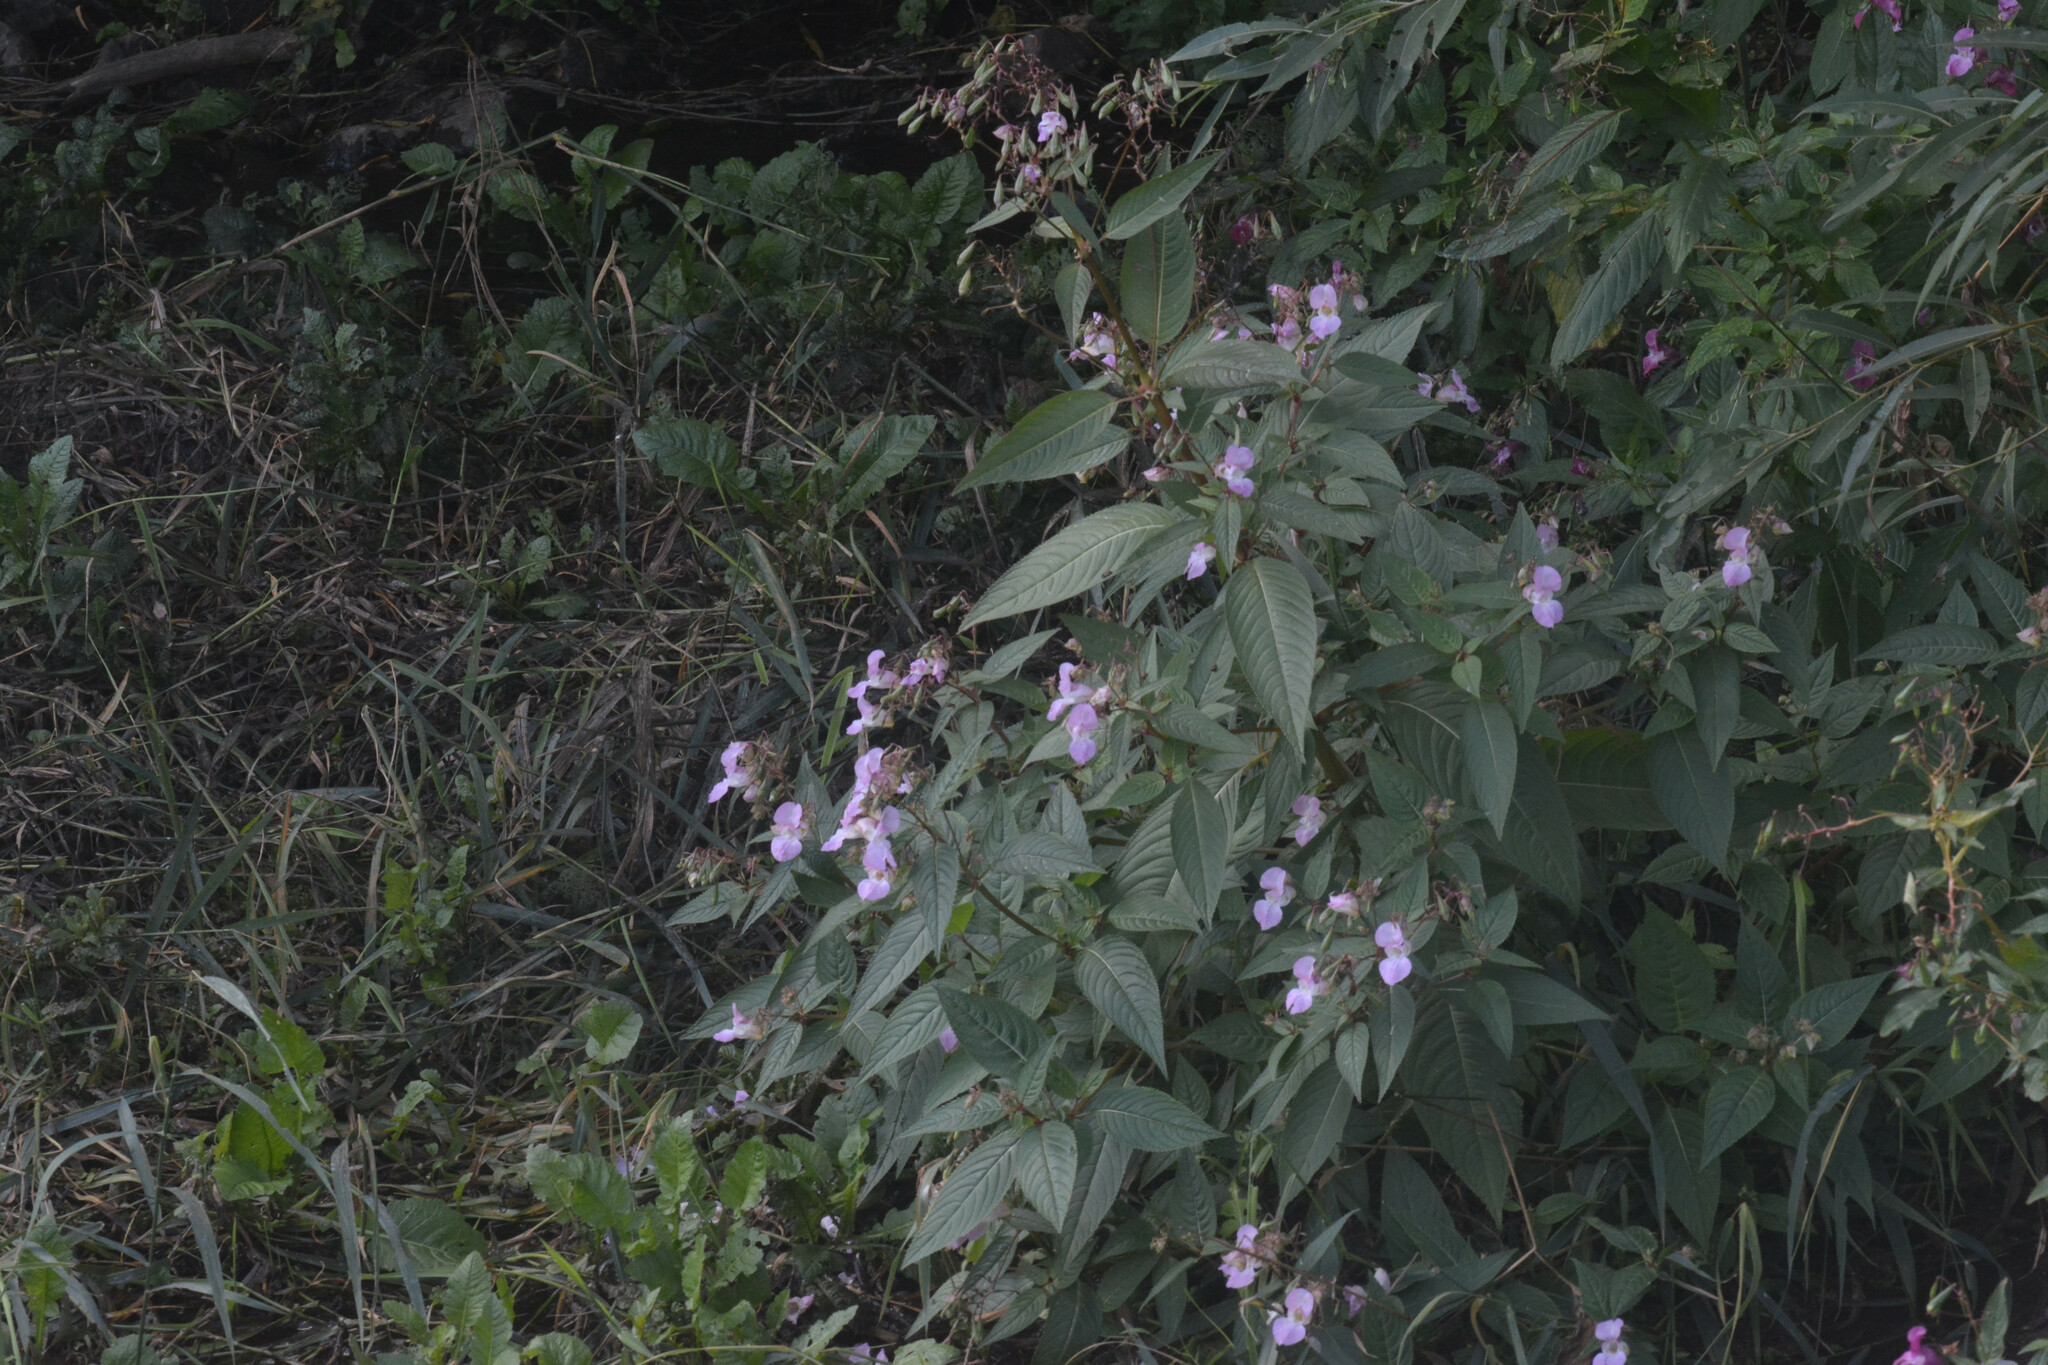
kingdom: Plantae
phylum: Tracheophyta
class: Magnoliopsida
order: Ericales
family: Balsaminaceae
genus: Impatiens
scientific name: Impatiens glandulifera
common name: Himalayan balsam
